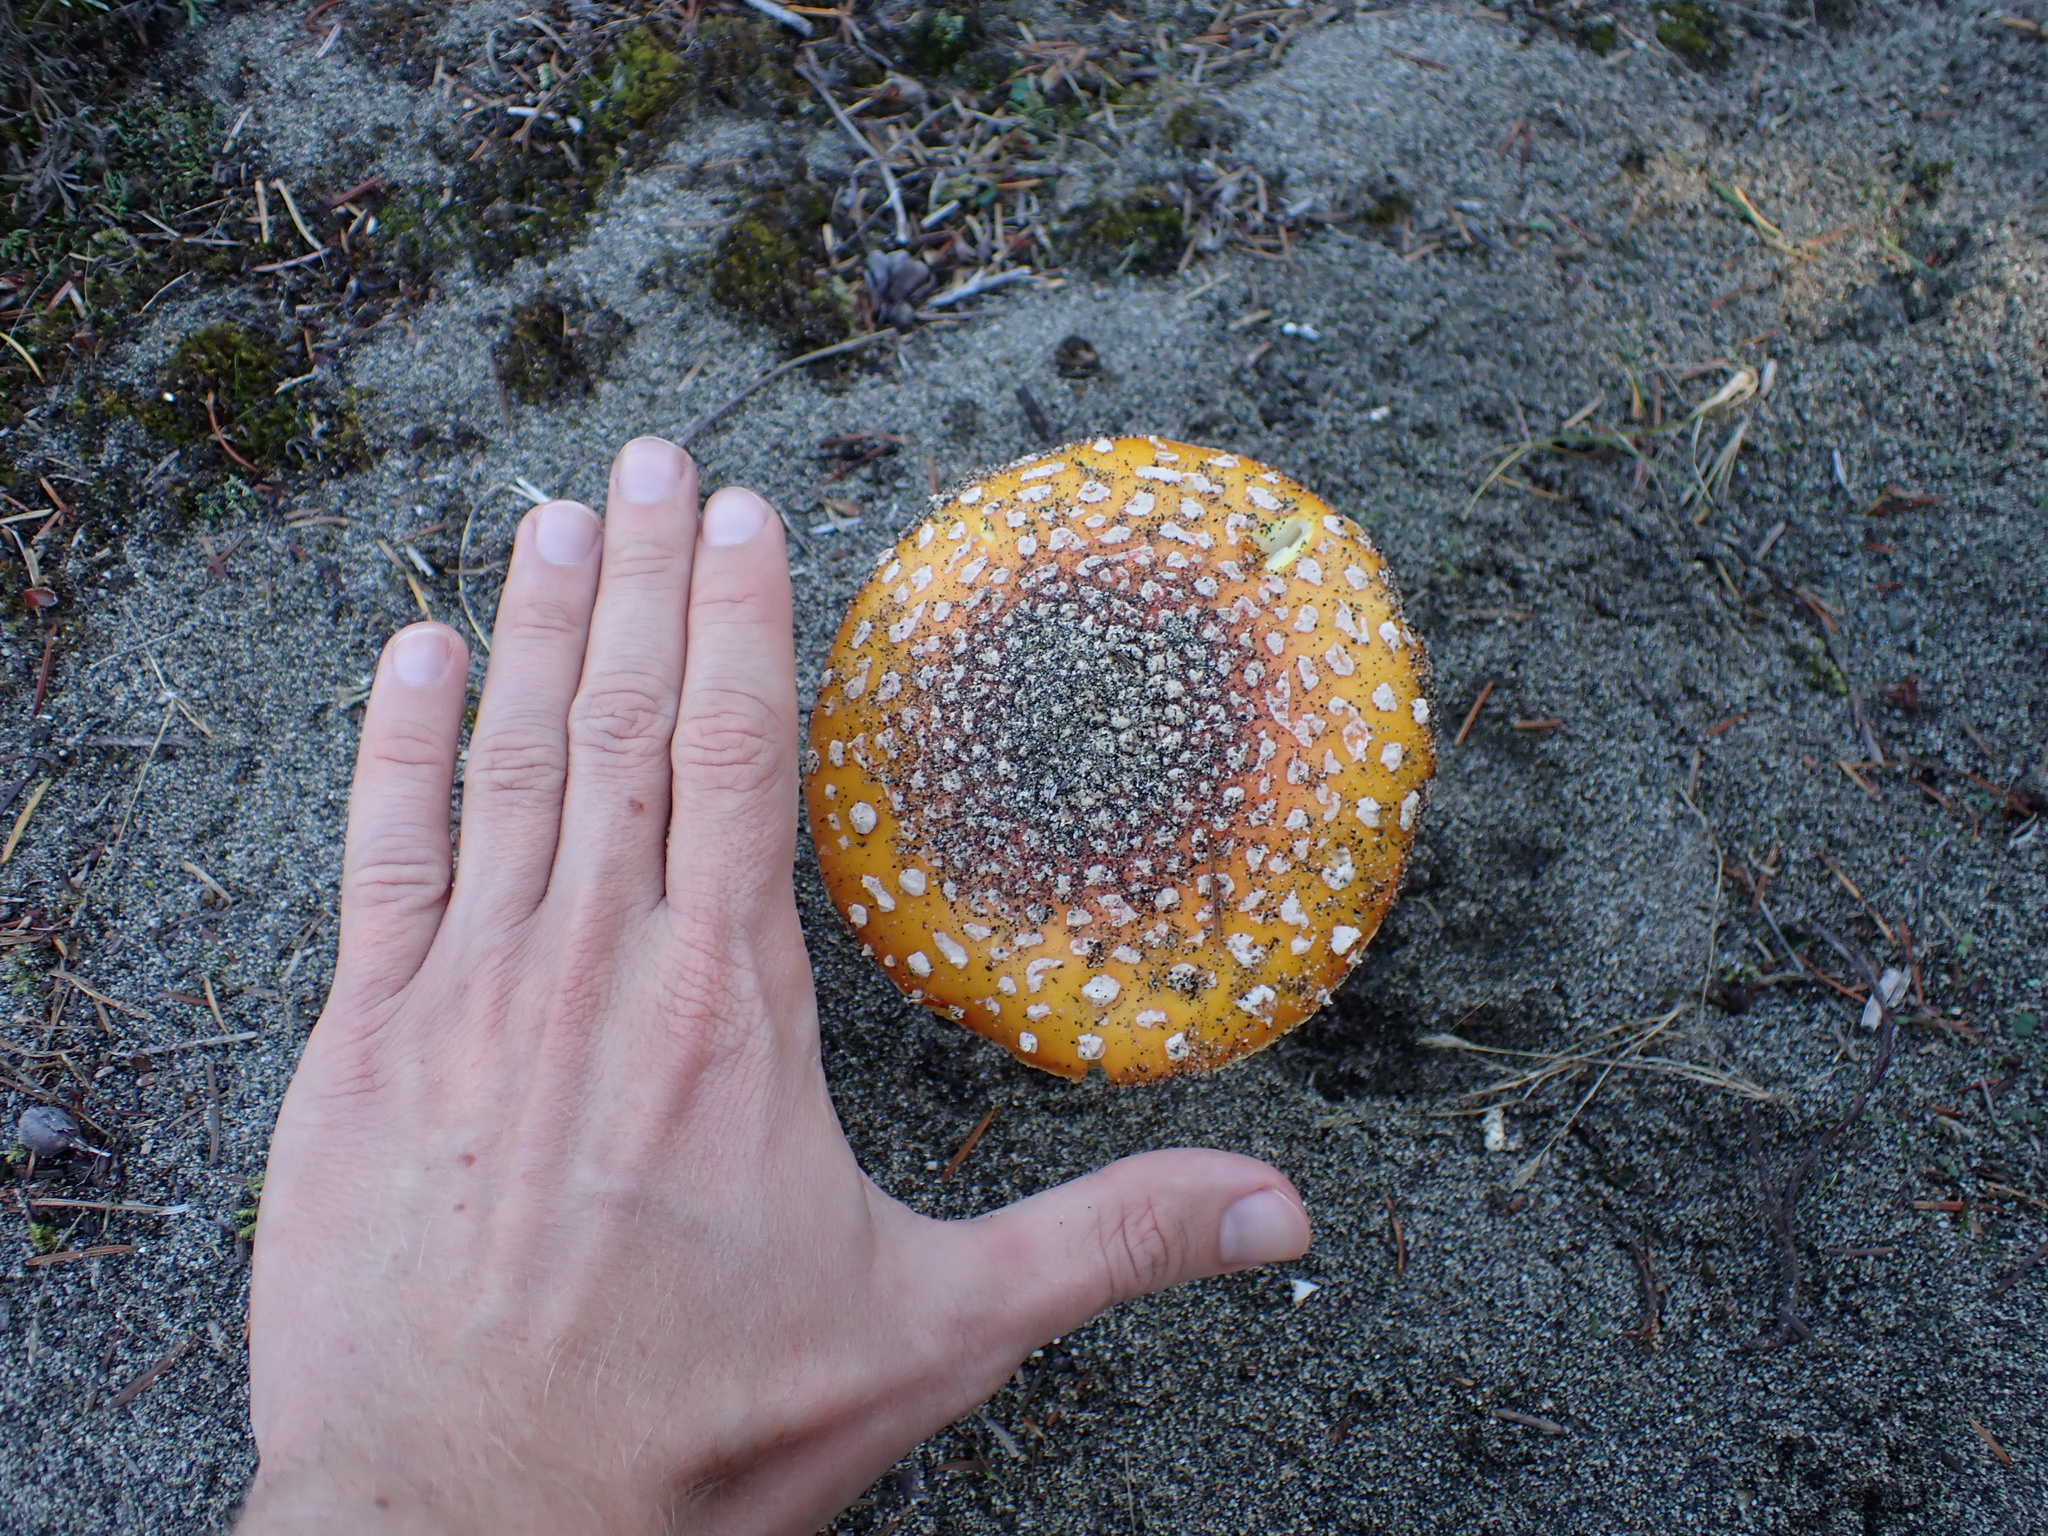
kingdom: Fungi
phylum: Basidiomycota
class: Agaricomycetes
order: Agaricales
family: Amanitaceae
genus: Amanita
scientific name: Amanita muscaria
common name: Fly agaric
